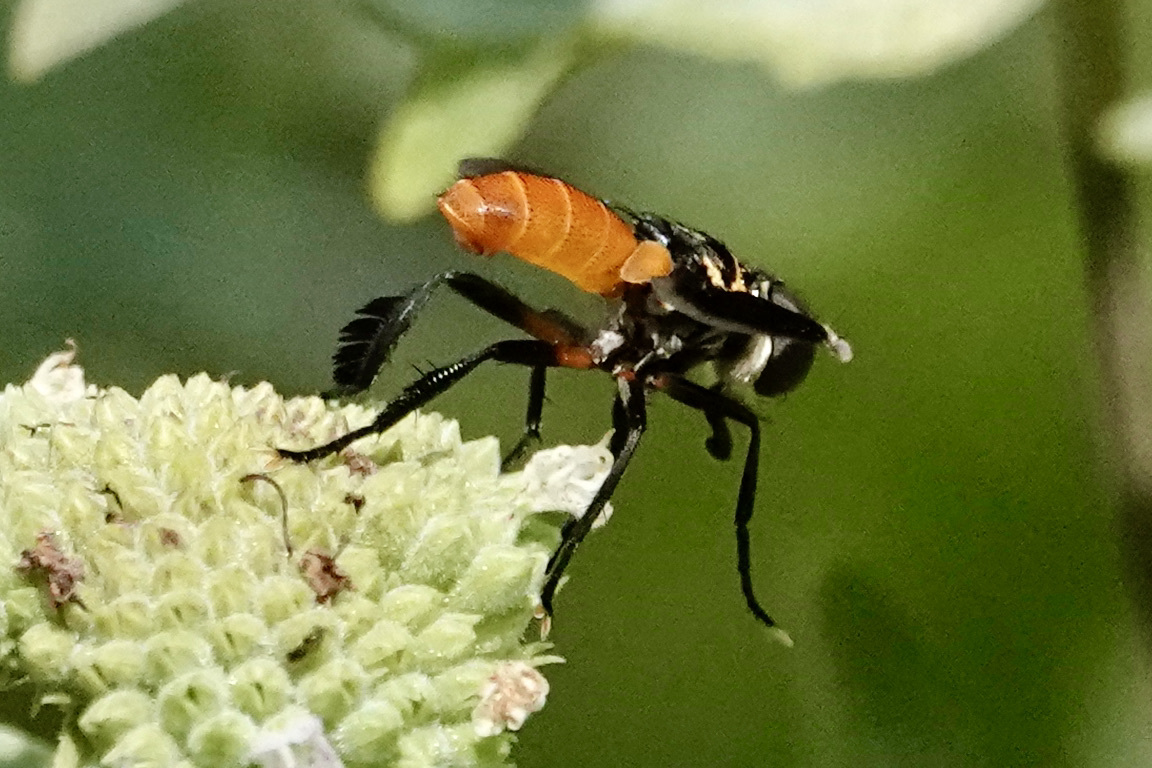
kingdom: Animalia
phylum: Arthropoda
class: Insecta
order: Diptera
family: Tachinidae
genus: Trichopoda
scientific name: Trichopoda pennipes
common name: Tachinid fly
